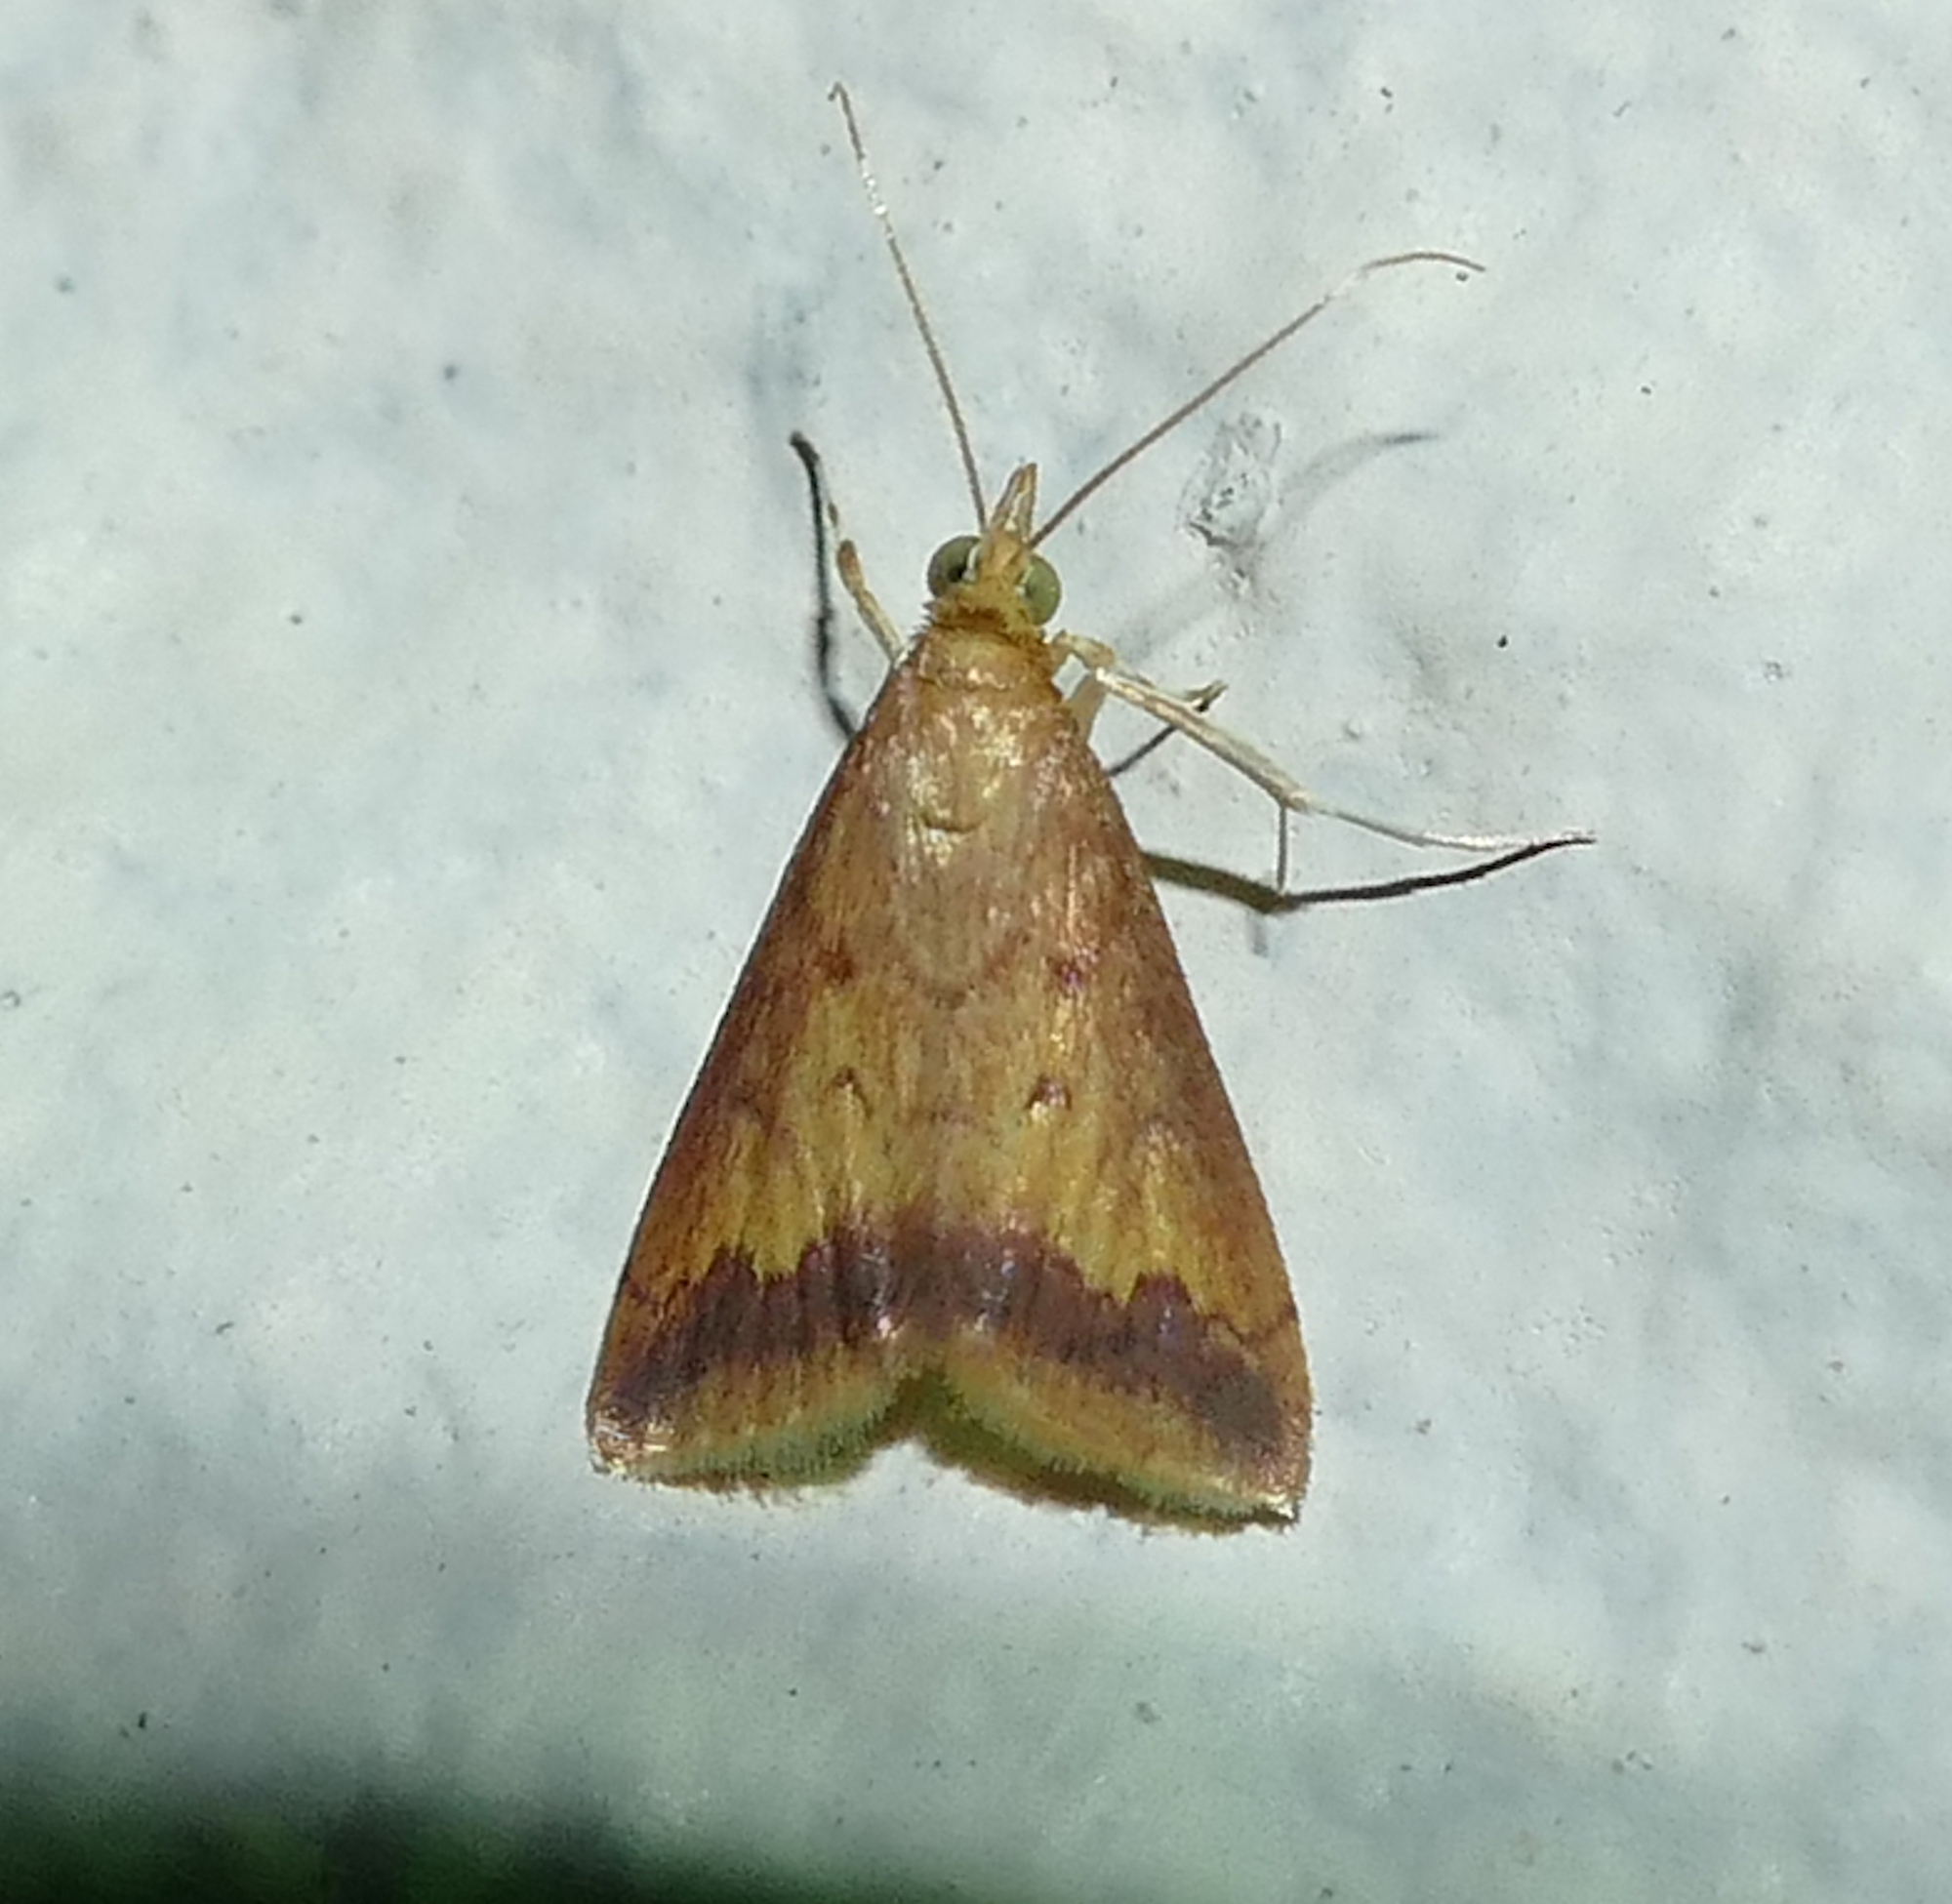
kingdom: Animalia
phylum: Arthropoda
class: Insecta
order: Lepidoptera
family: Crambidae
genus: Hyalorista
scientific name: Hyalorista taeniolalis
